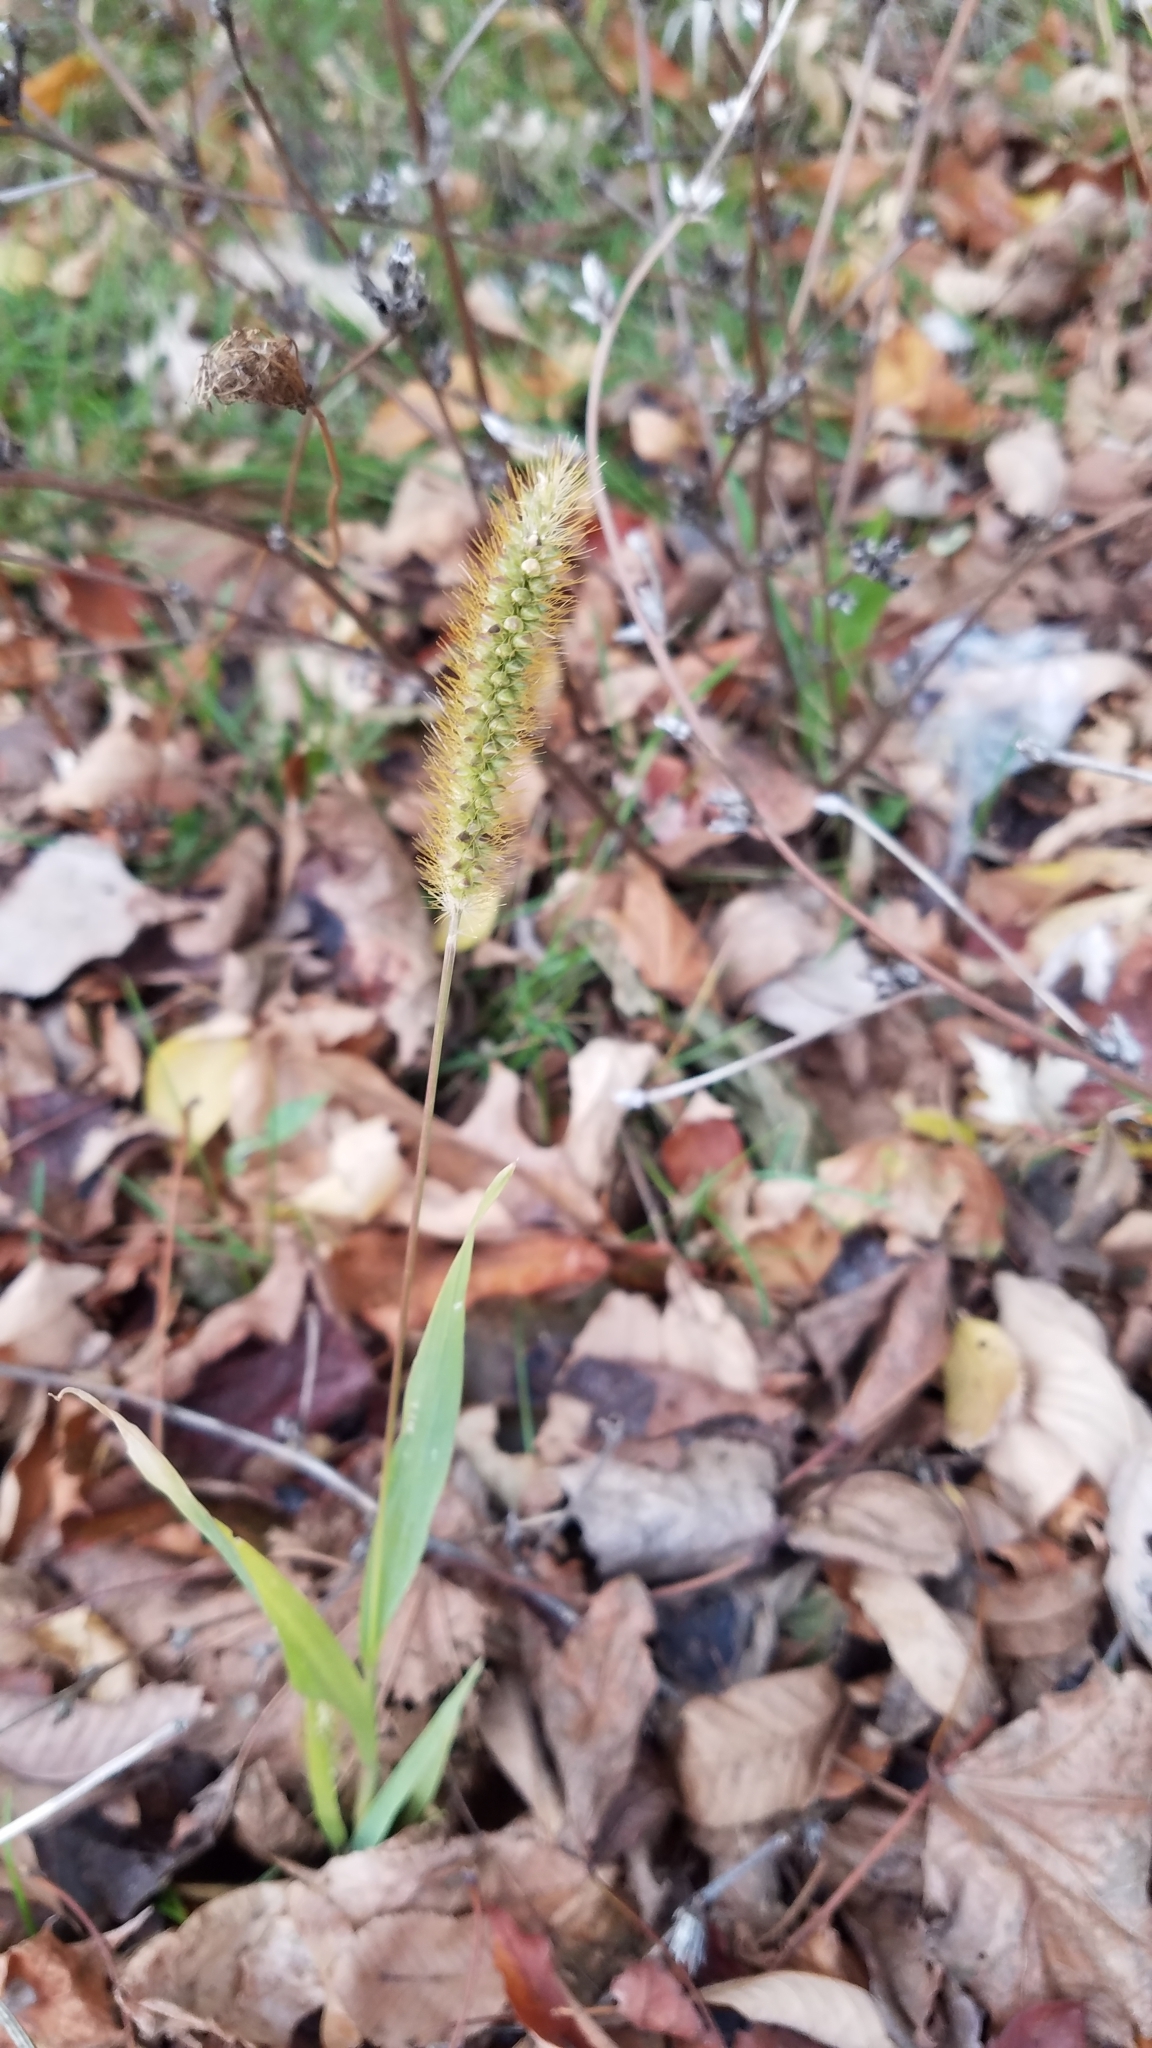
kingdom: Plantae
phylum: Tracheophyta
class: Liliopsida
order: Poales
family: Poaceae
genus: Setaria
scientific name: Setaria pumila
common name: Yellow bristle-grass
